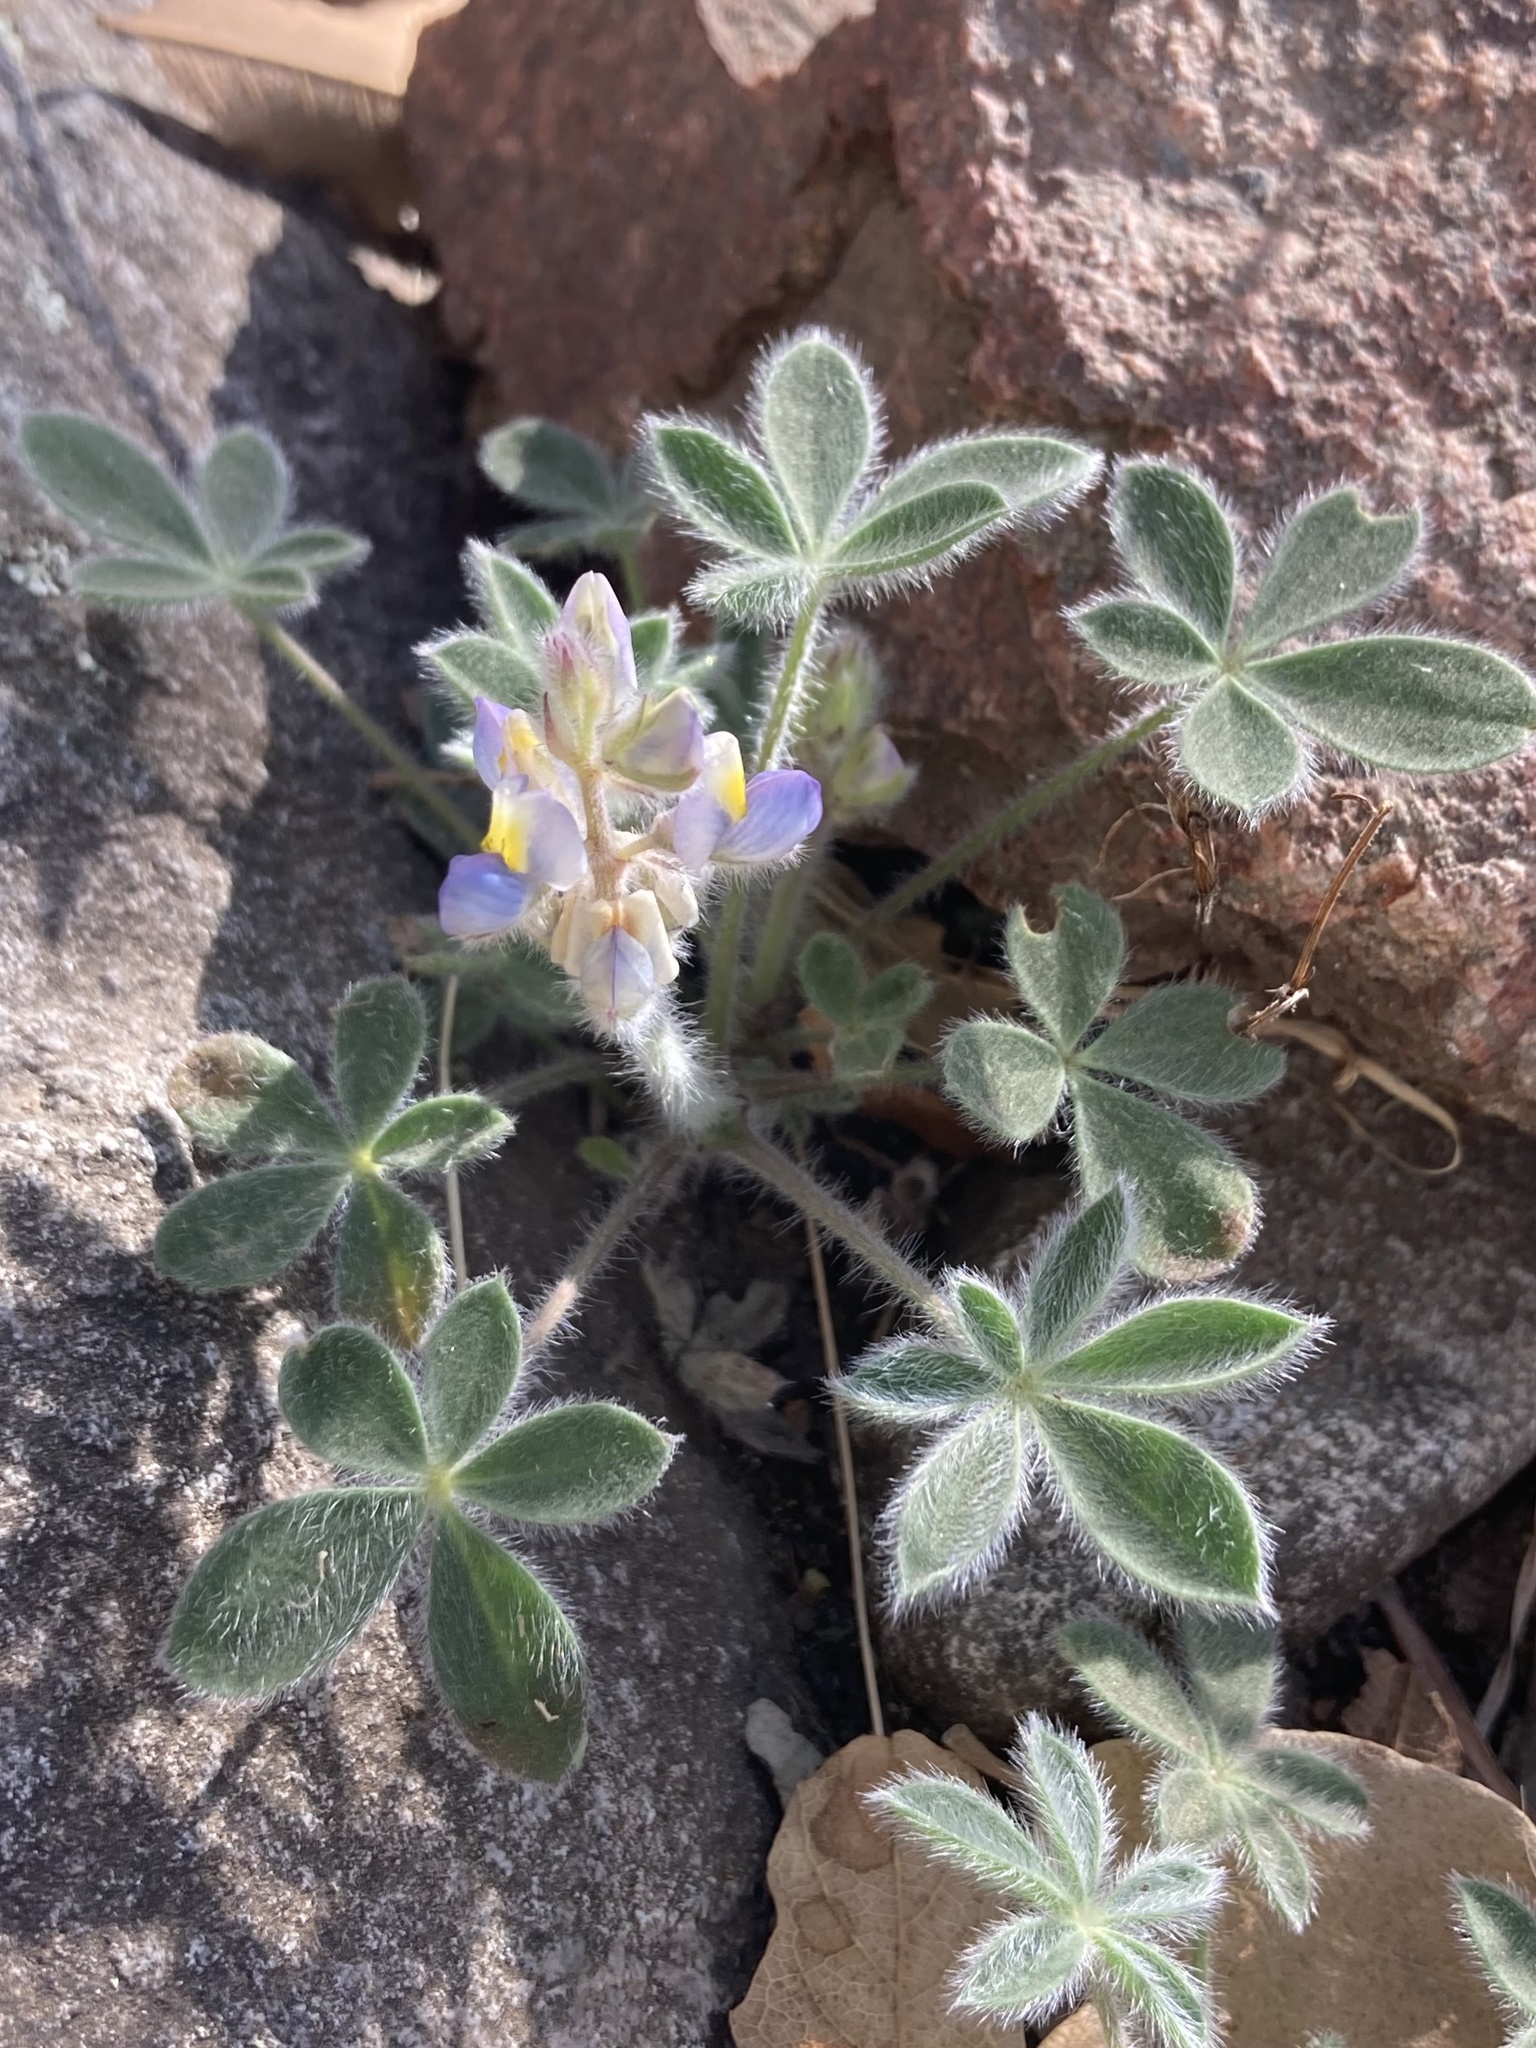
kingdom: Plantae
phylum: Tracheophyta
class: Magnoliopsida
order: Fabales
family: Fabaceae
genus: Lupinus
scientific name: Lupinus huachucanus
